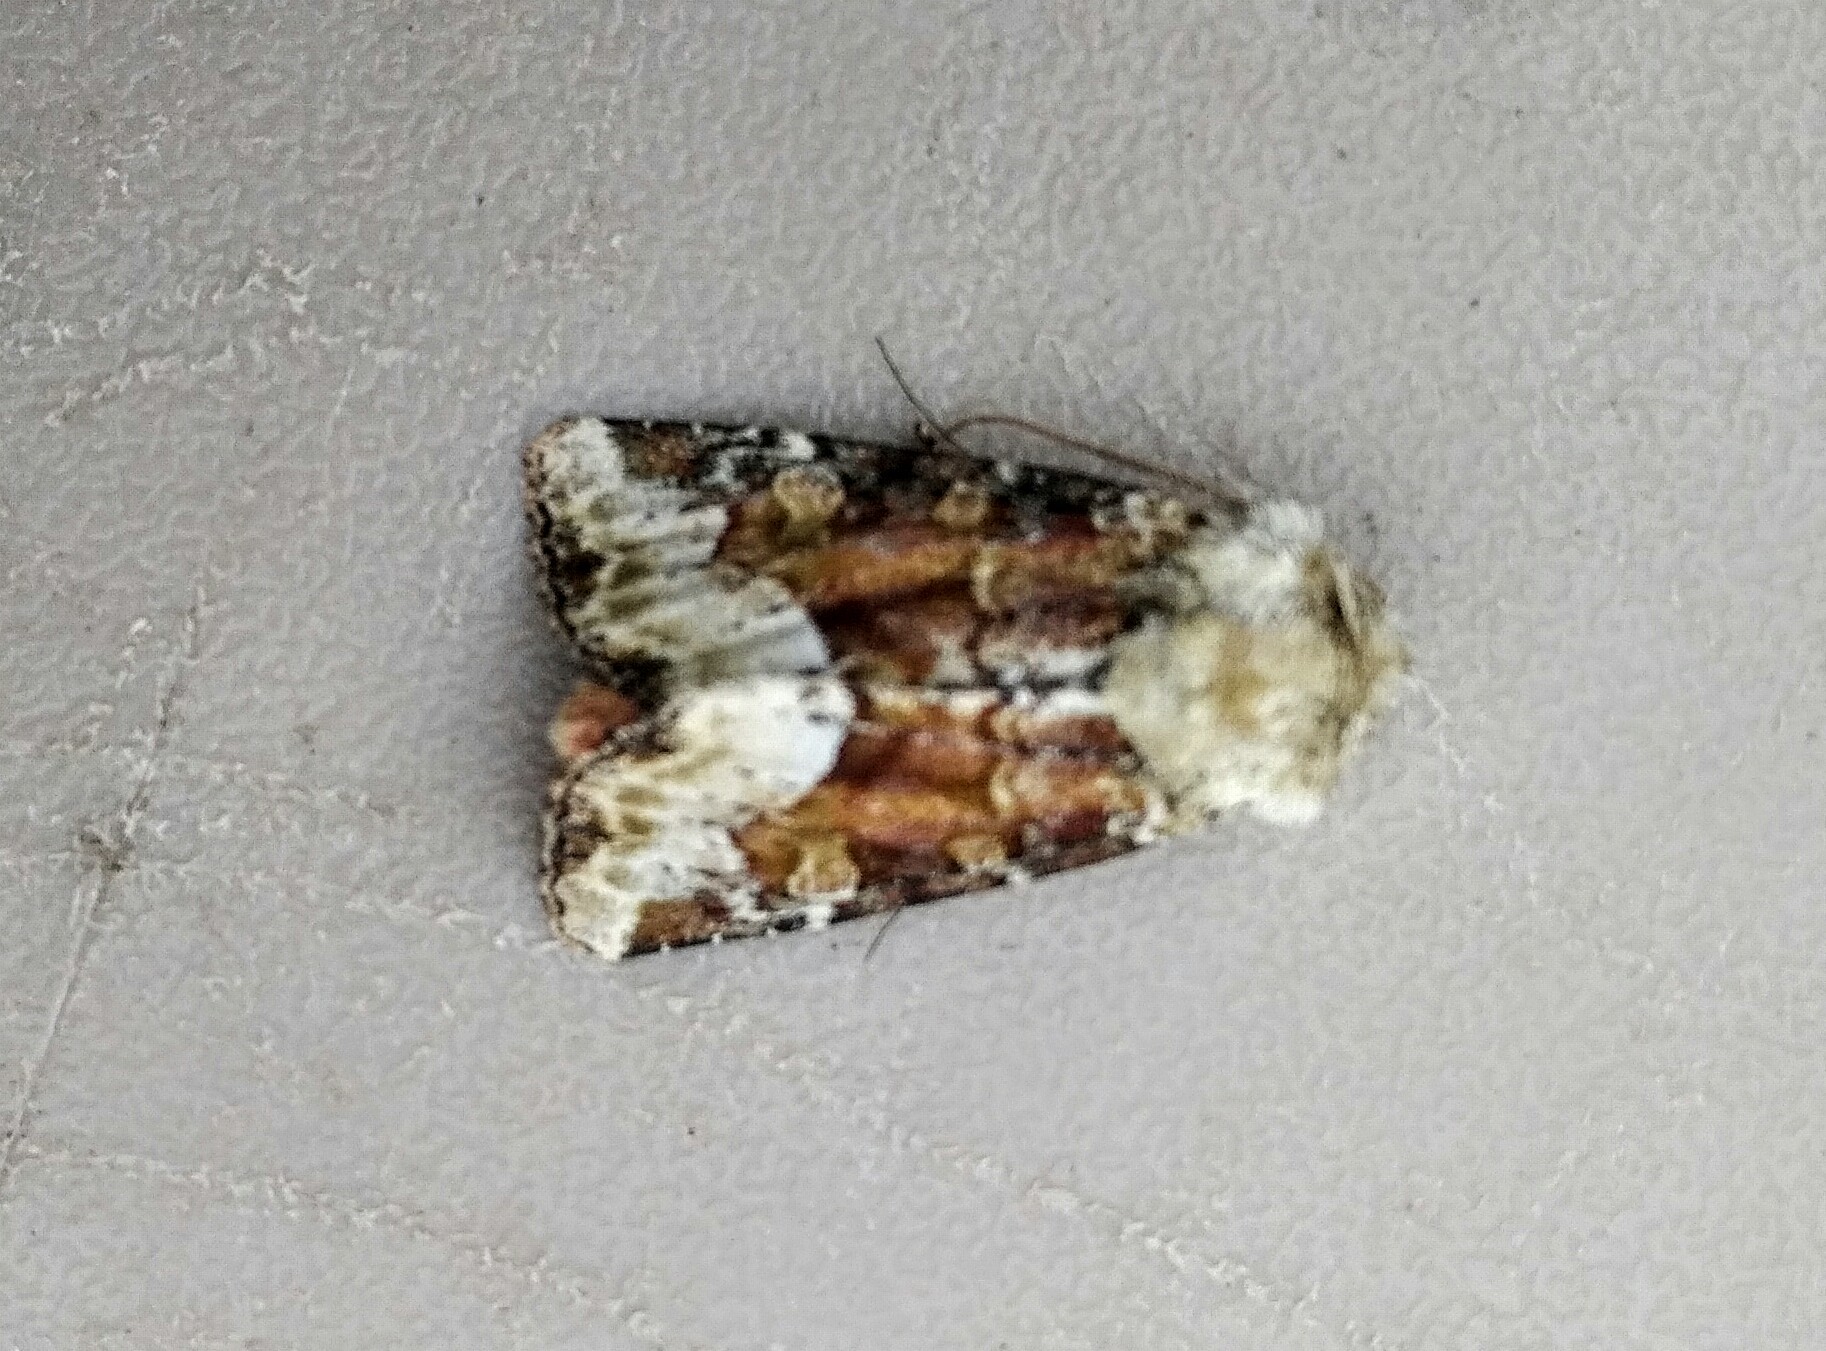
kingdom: Animalia
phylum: Arthropoda
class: Insecta
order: Lepidoptera
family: Noctuidae
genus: Oligia
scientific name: Oligia egens
